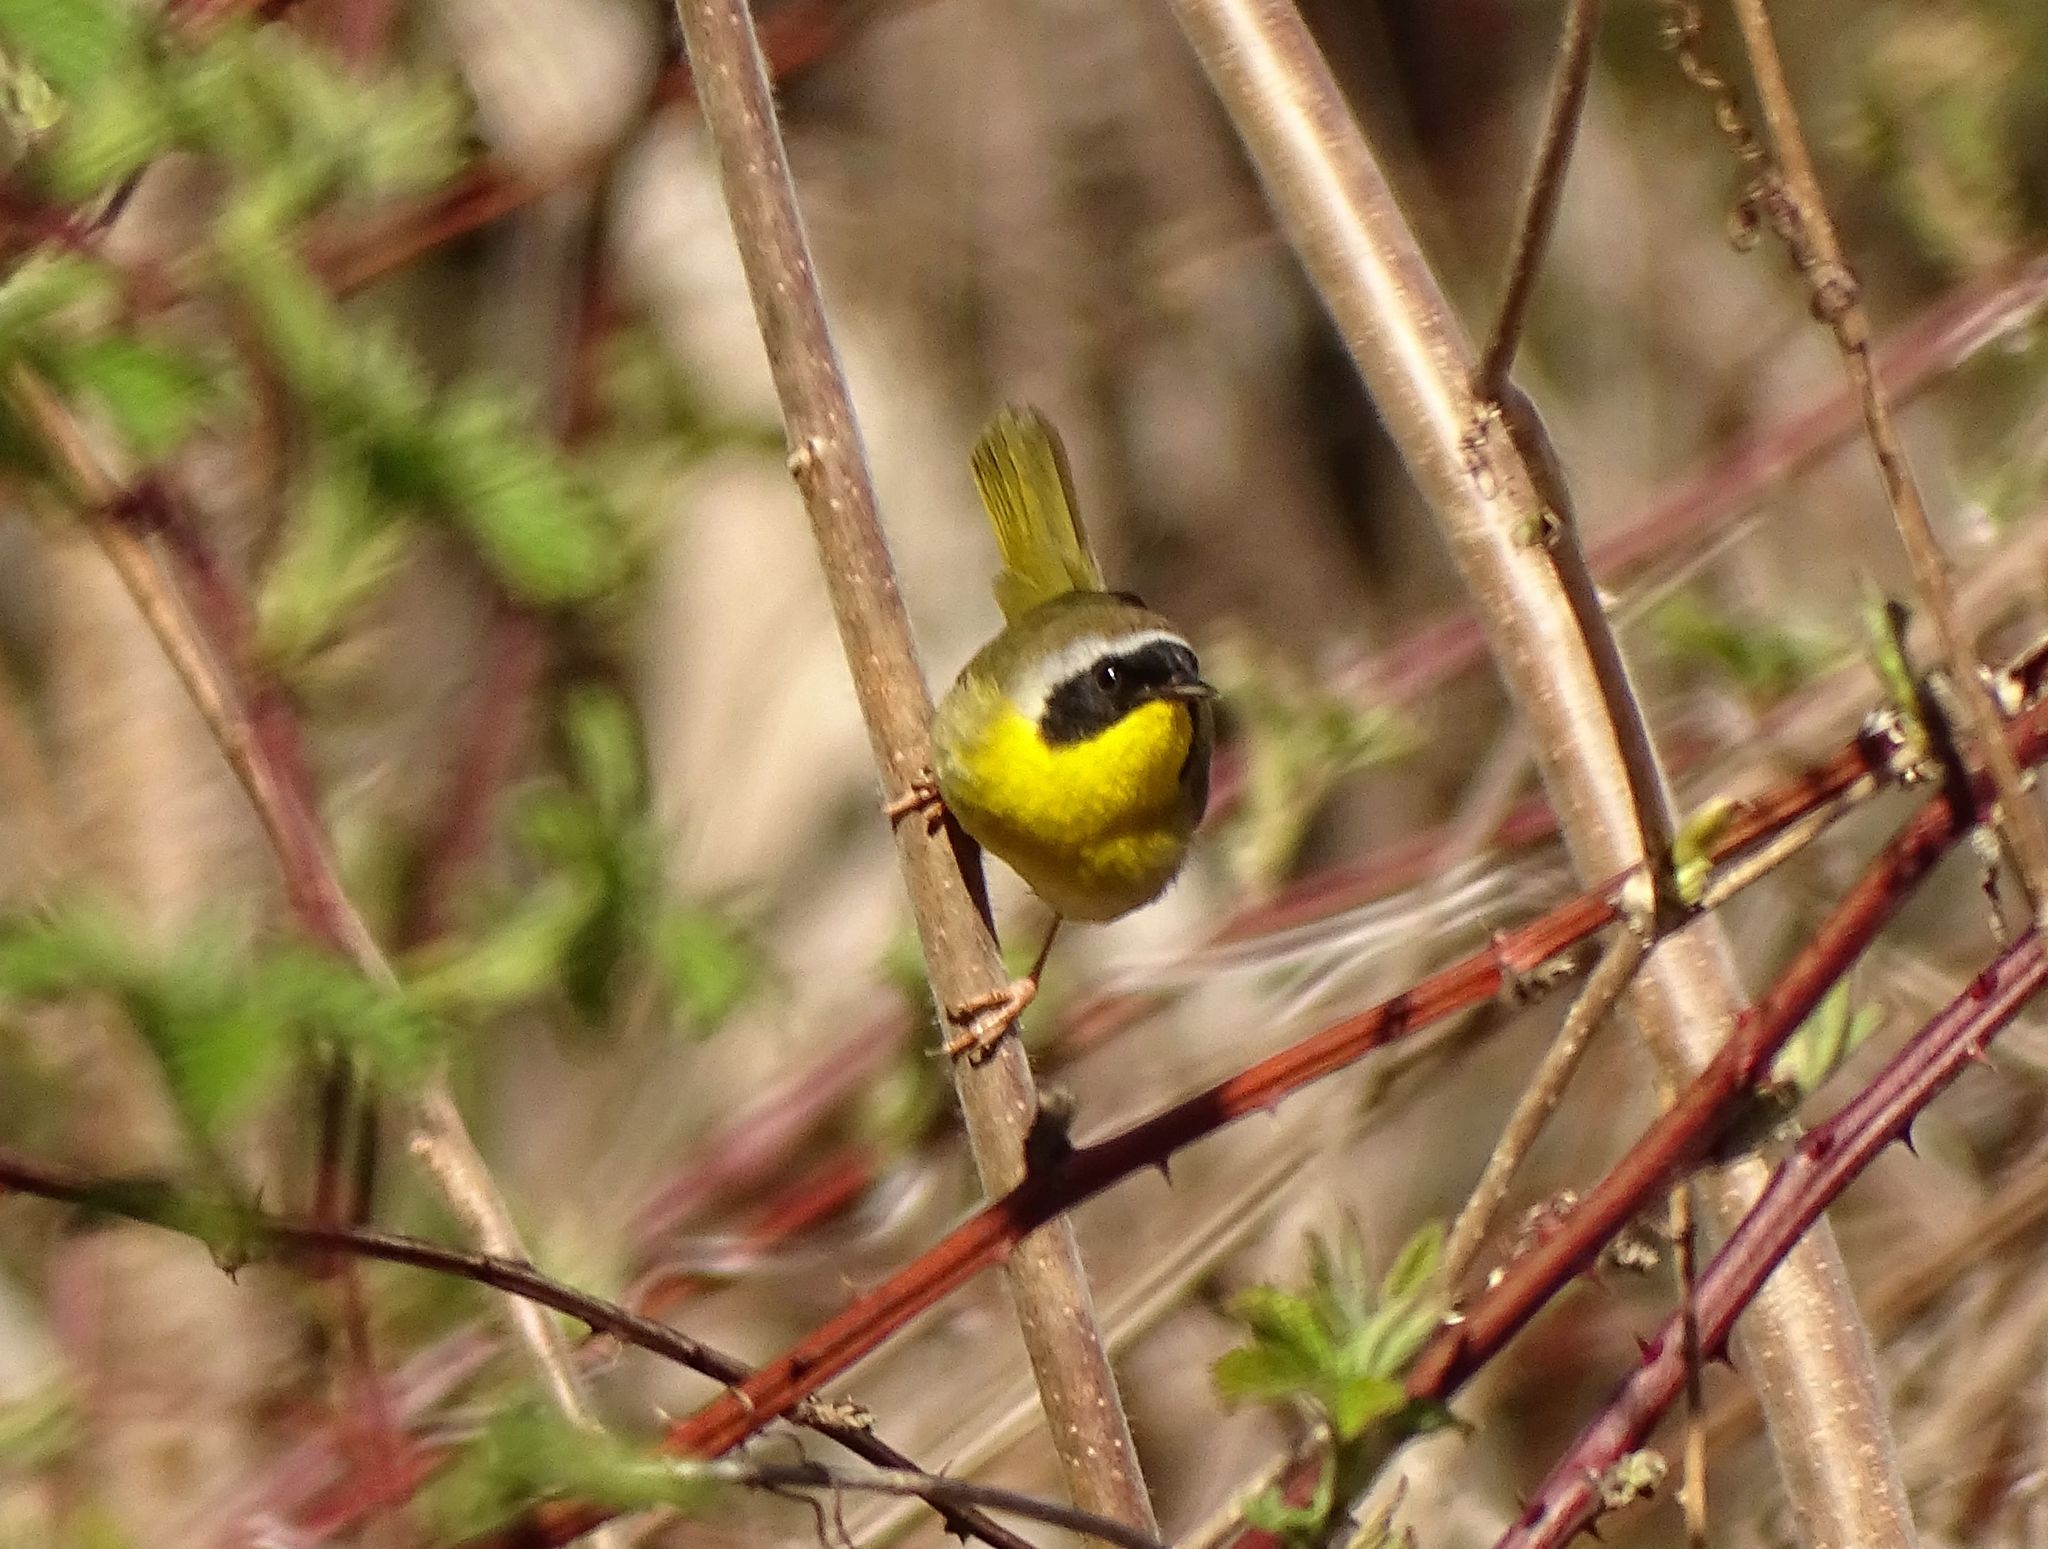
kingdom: Animalia
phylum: Chordata
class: Aves
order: Passeriformes
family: Parulidae
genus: Geothlypis
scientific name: Geothlypis trichas
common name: Common yellowthroat
